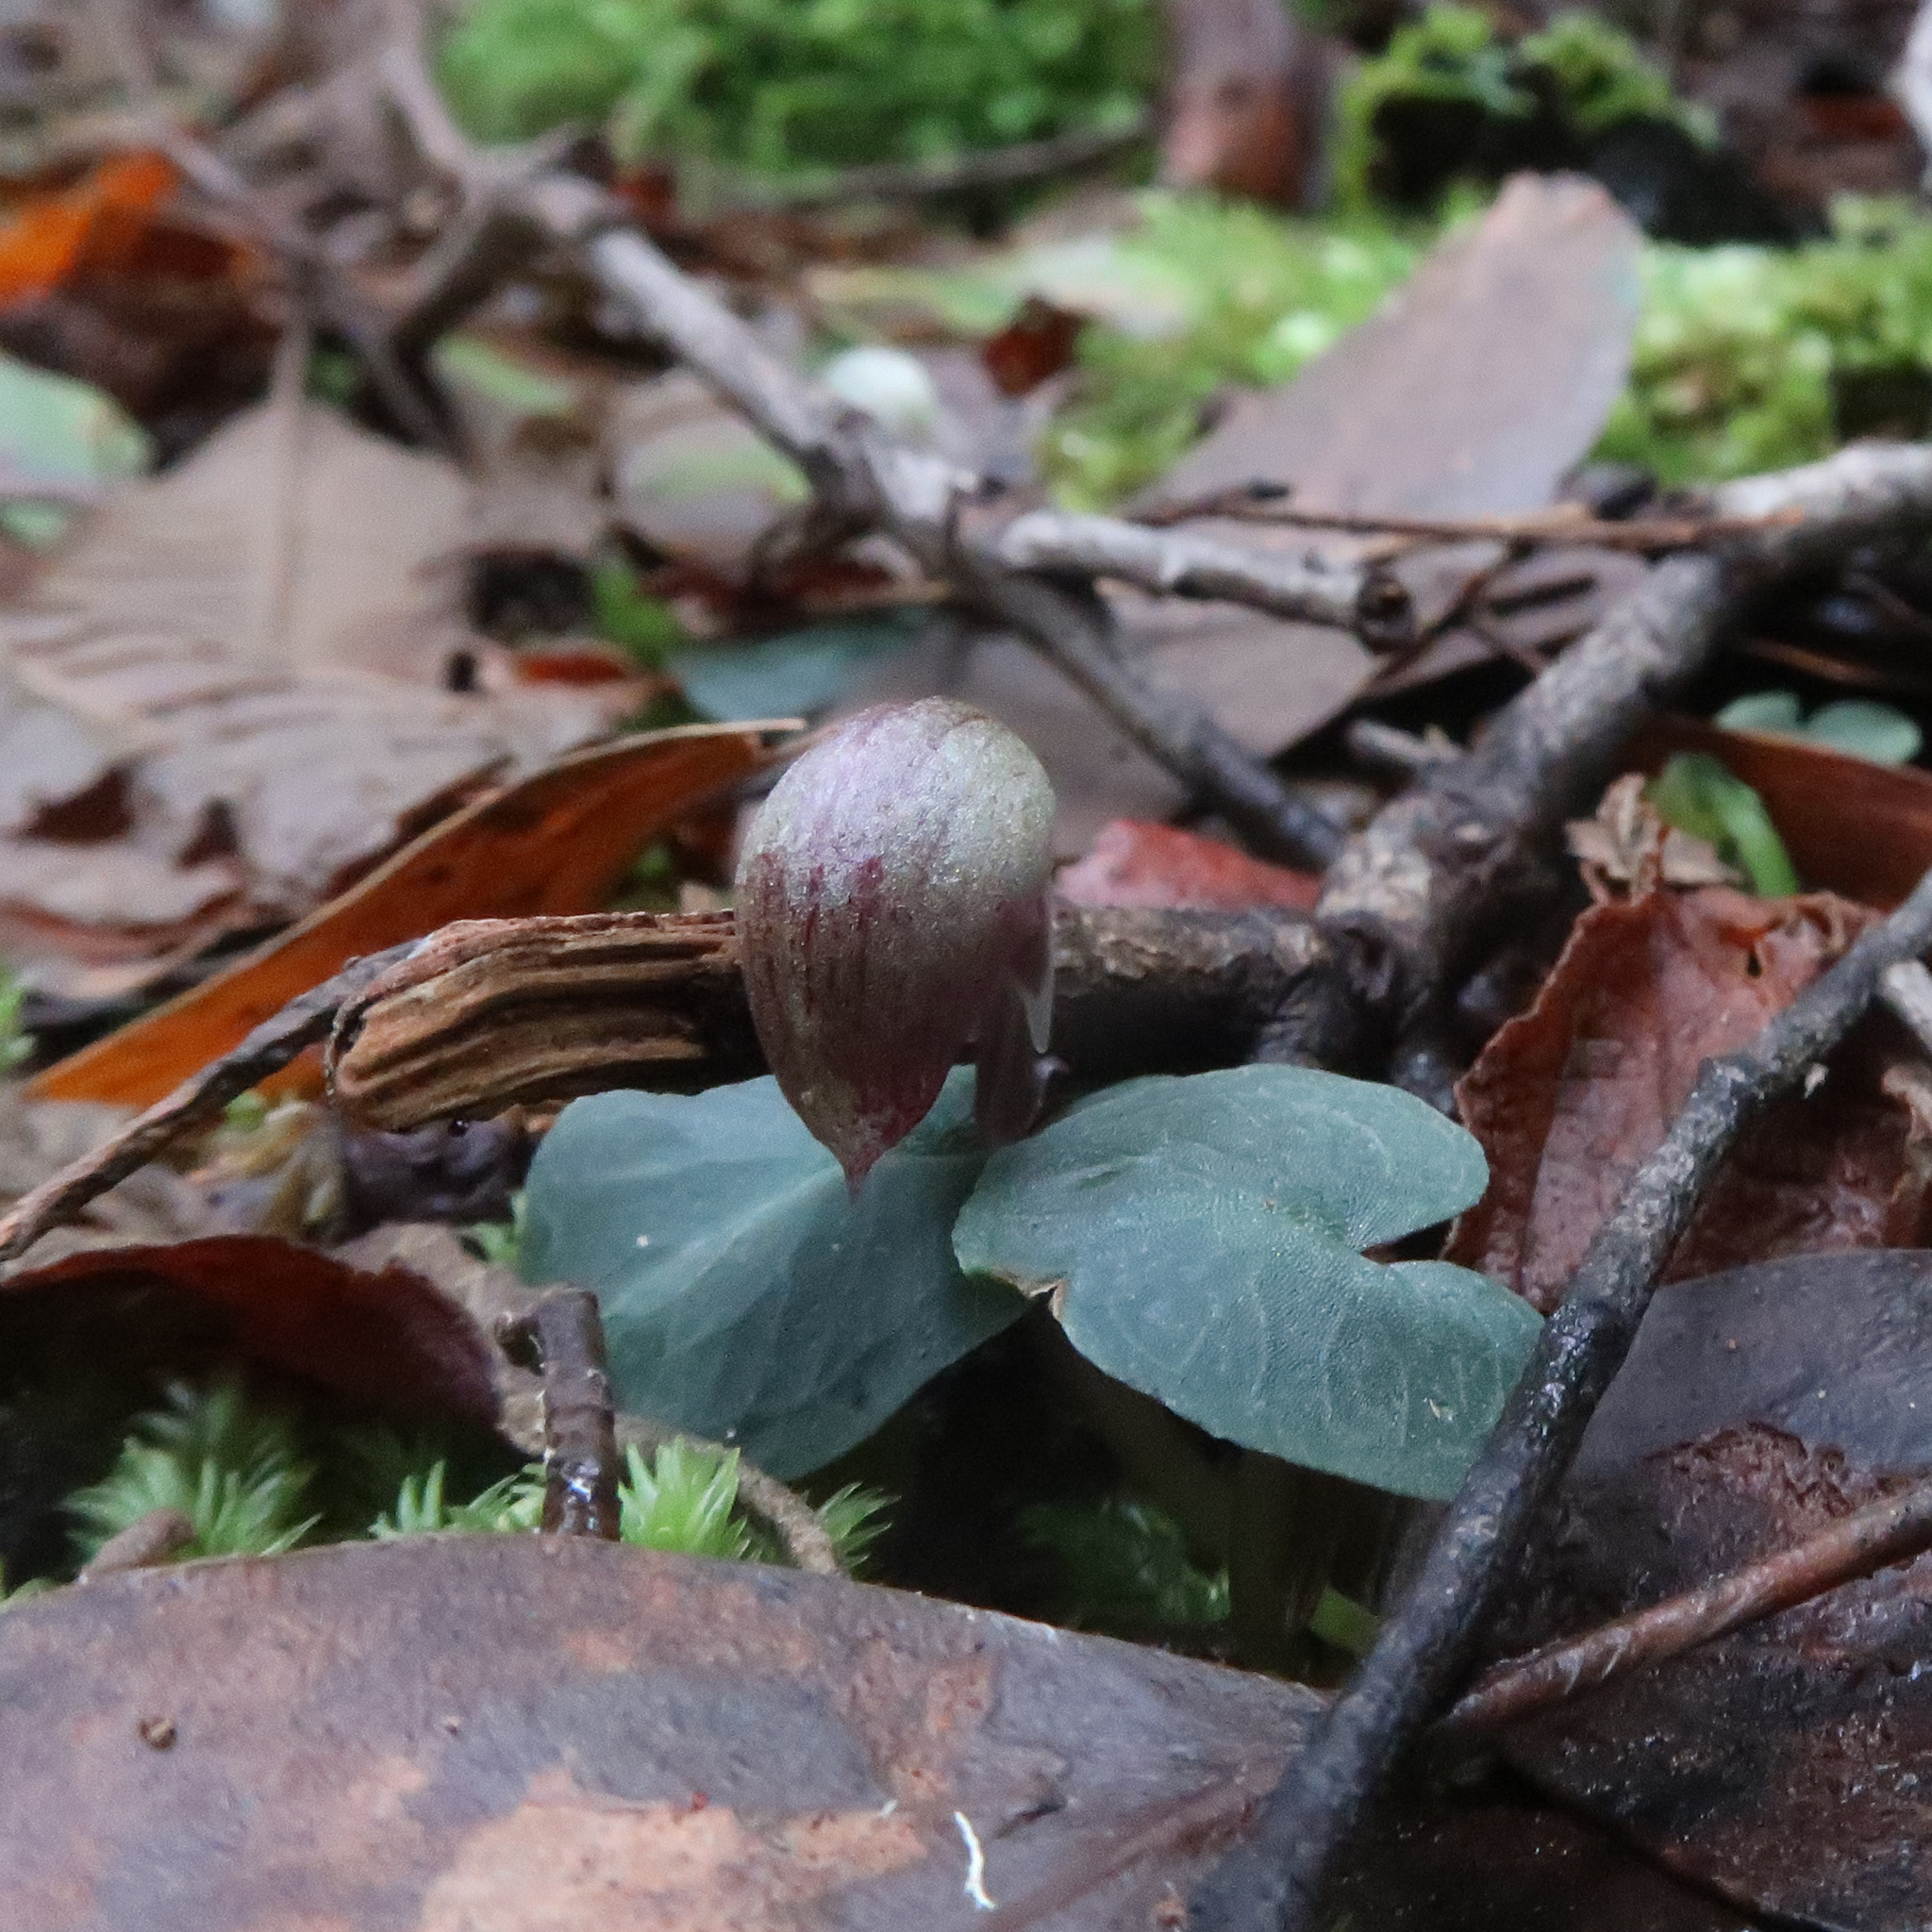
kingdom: Plantae
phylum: Tracheophyta
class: Liliopsida
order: Asparagales
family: Orchidaceae
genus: Corybas
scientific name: Corybas aconitiflorus
